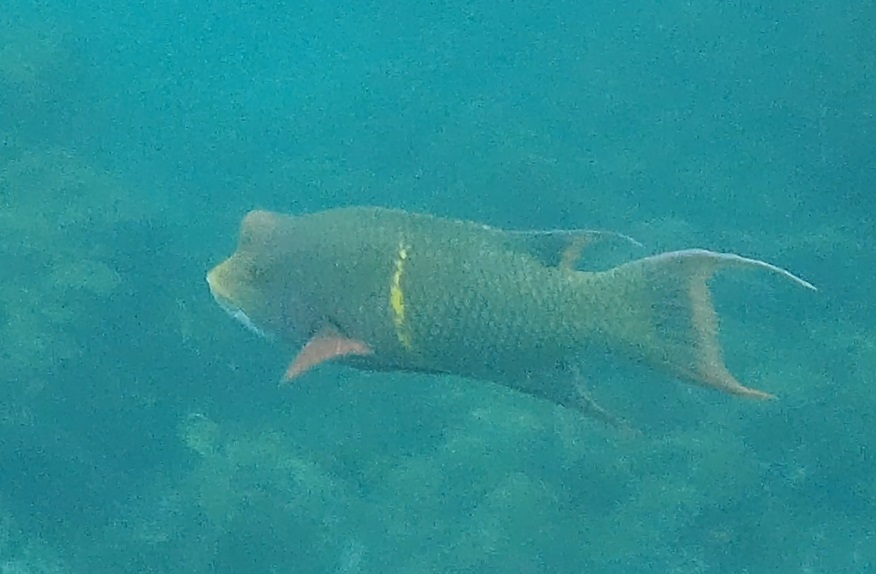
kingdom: Animalia
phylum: Chordata
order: Perciformes
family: Labridae
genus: Bodianus
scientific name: Bodianus diplotaenia
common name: Mexican hogfish
